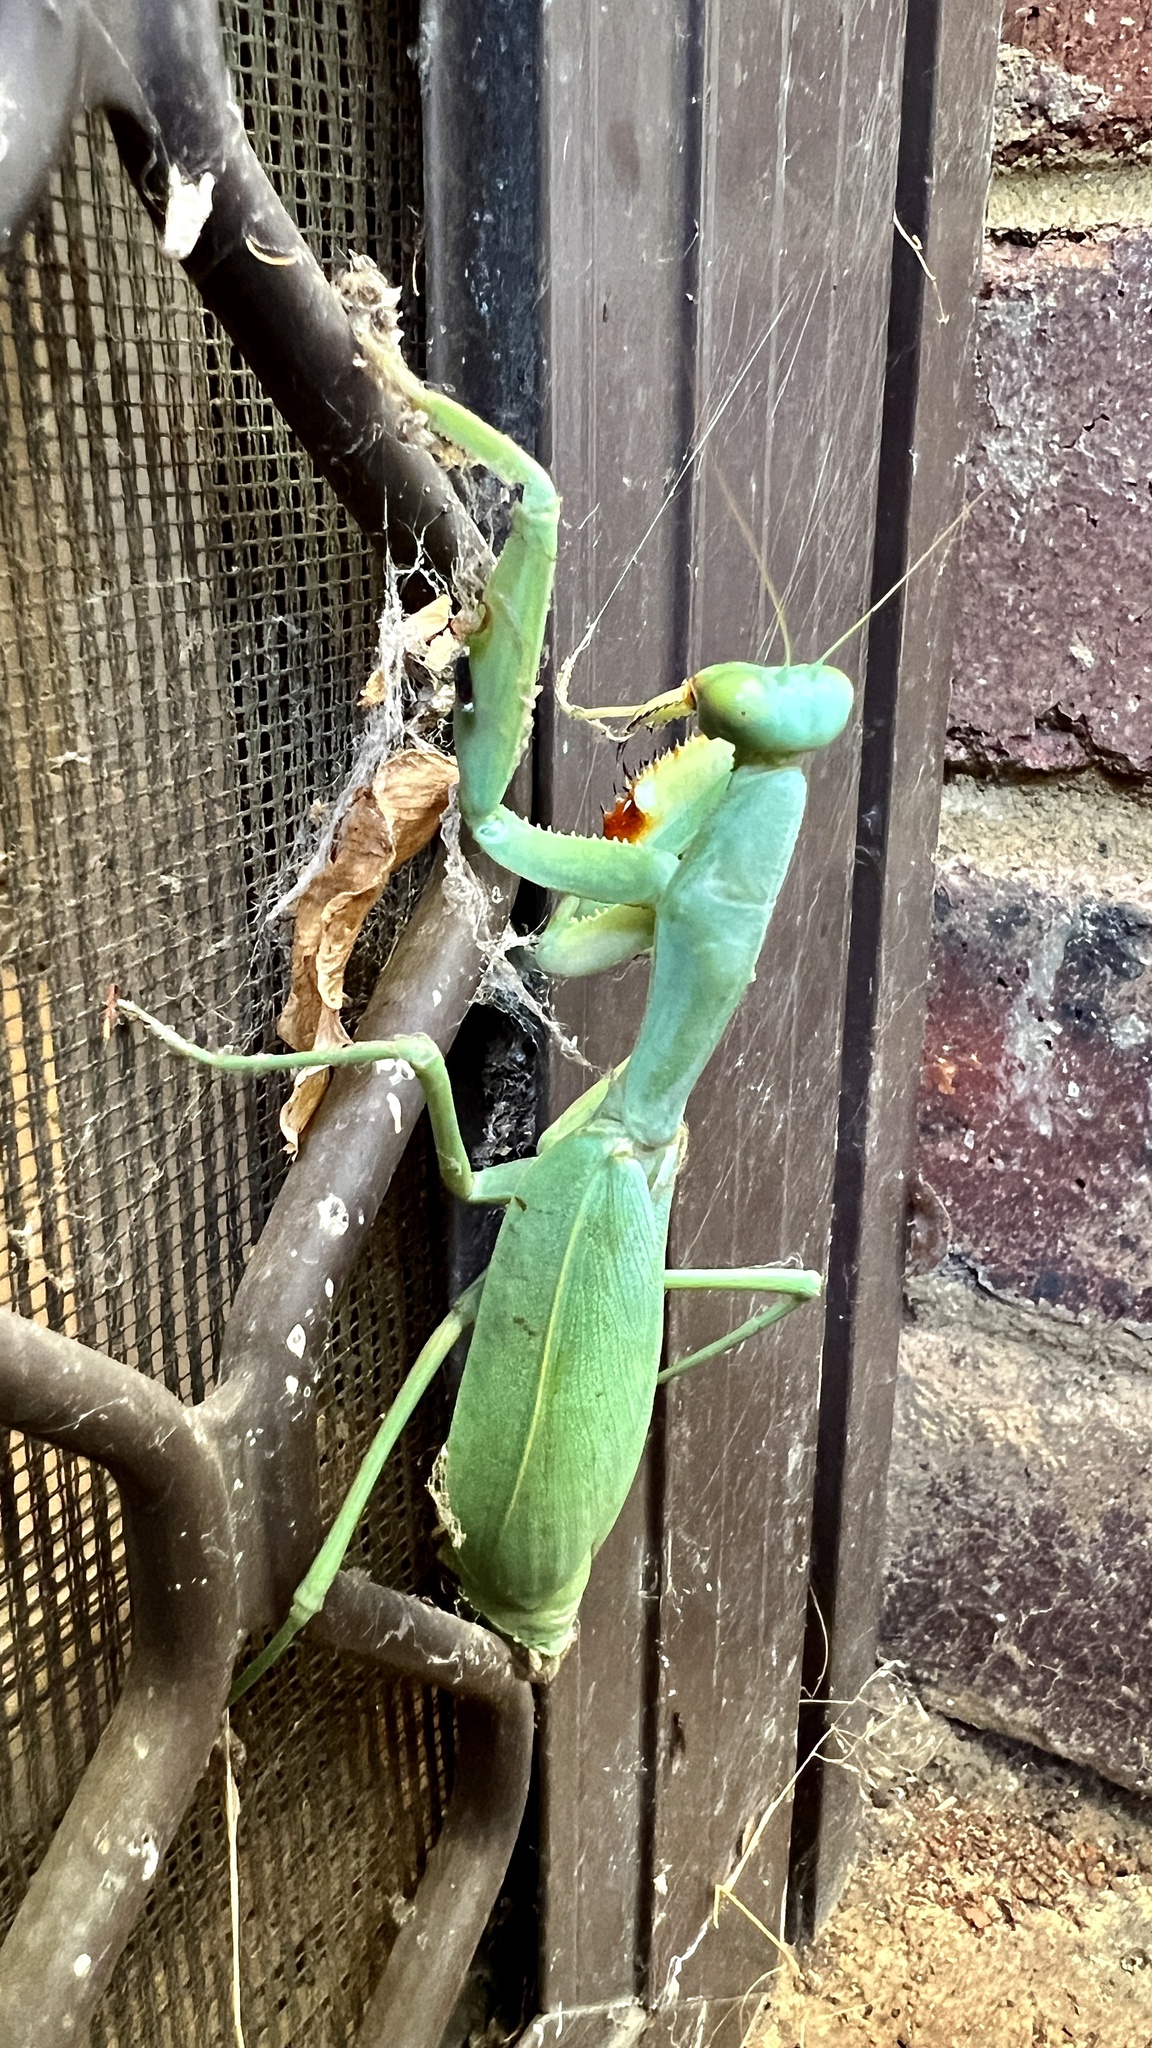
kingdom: Animalia
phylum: Arthropoda
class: Insecta
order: Mantodea
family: Mantidae
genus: Trachymantis
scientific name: Trachymantis dentifrons
